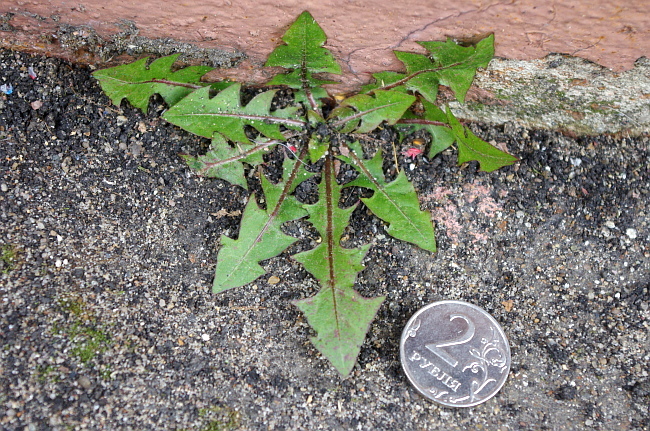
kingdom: Plantae
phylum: Tracheophyta
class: Magnoliopsida
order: Asterales
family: Asteraceae
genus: Taraxacum
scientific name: Taraxacum officinale
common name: Common dandelion
